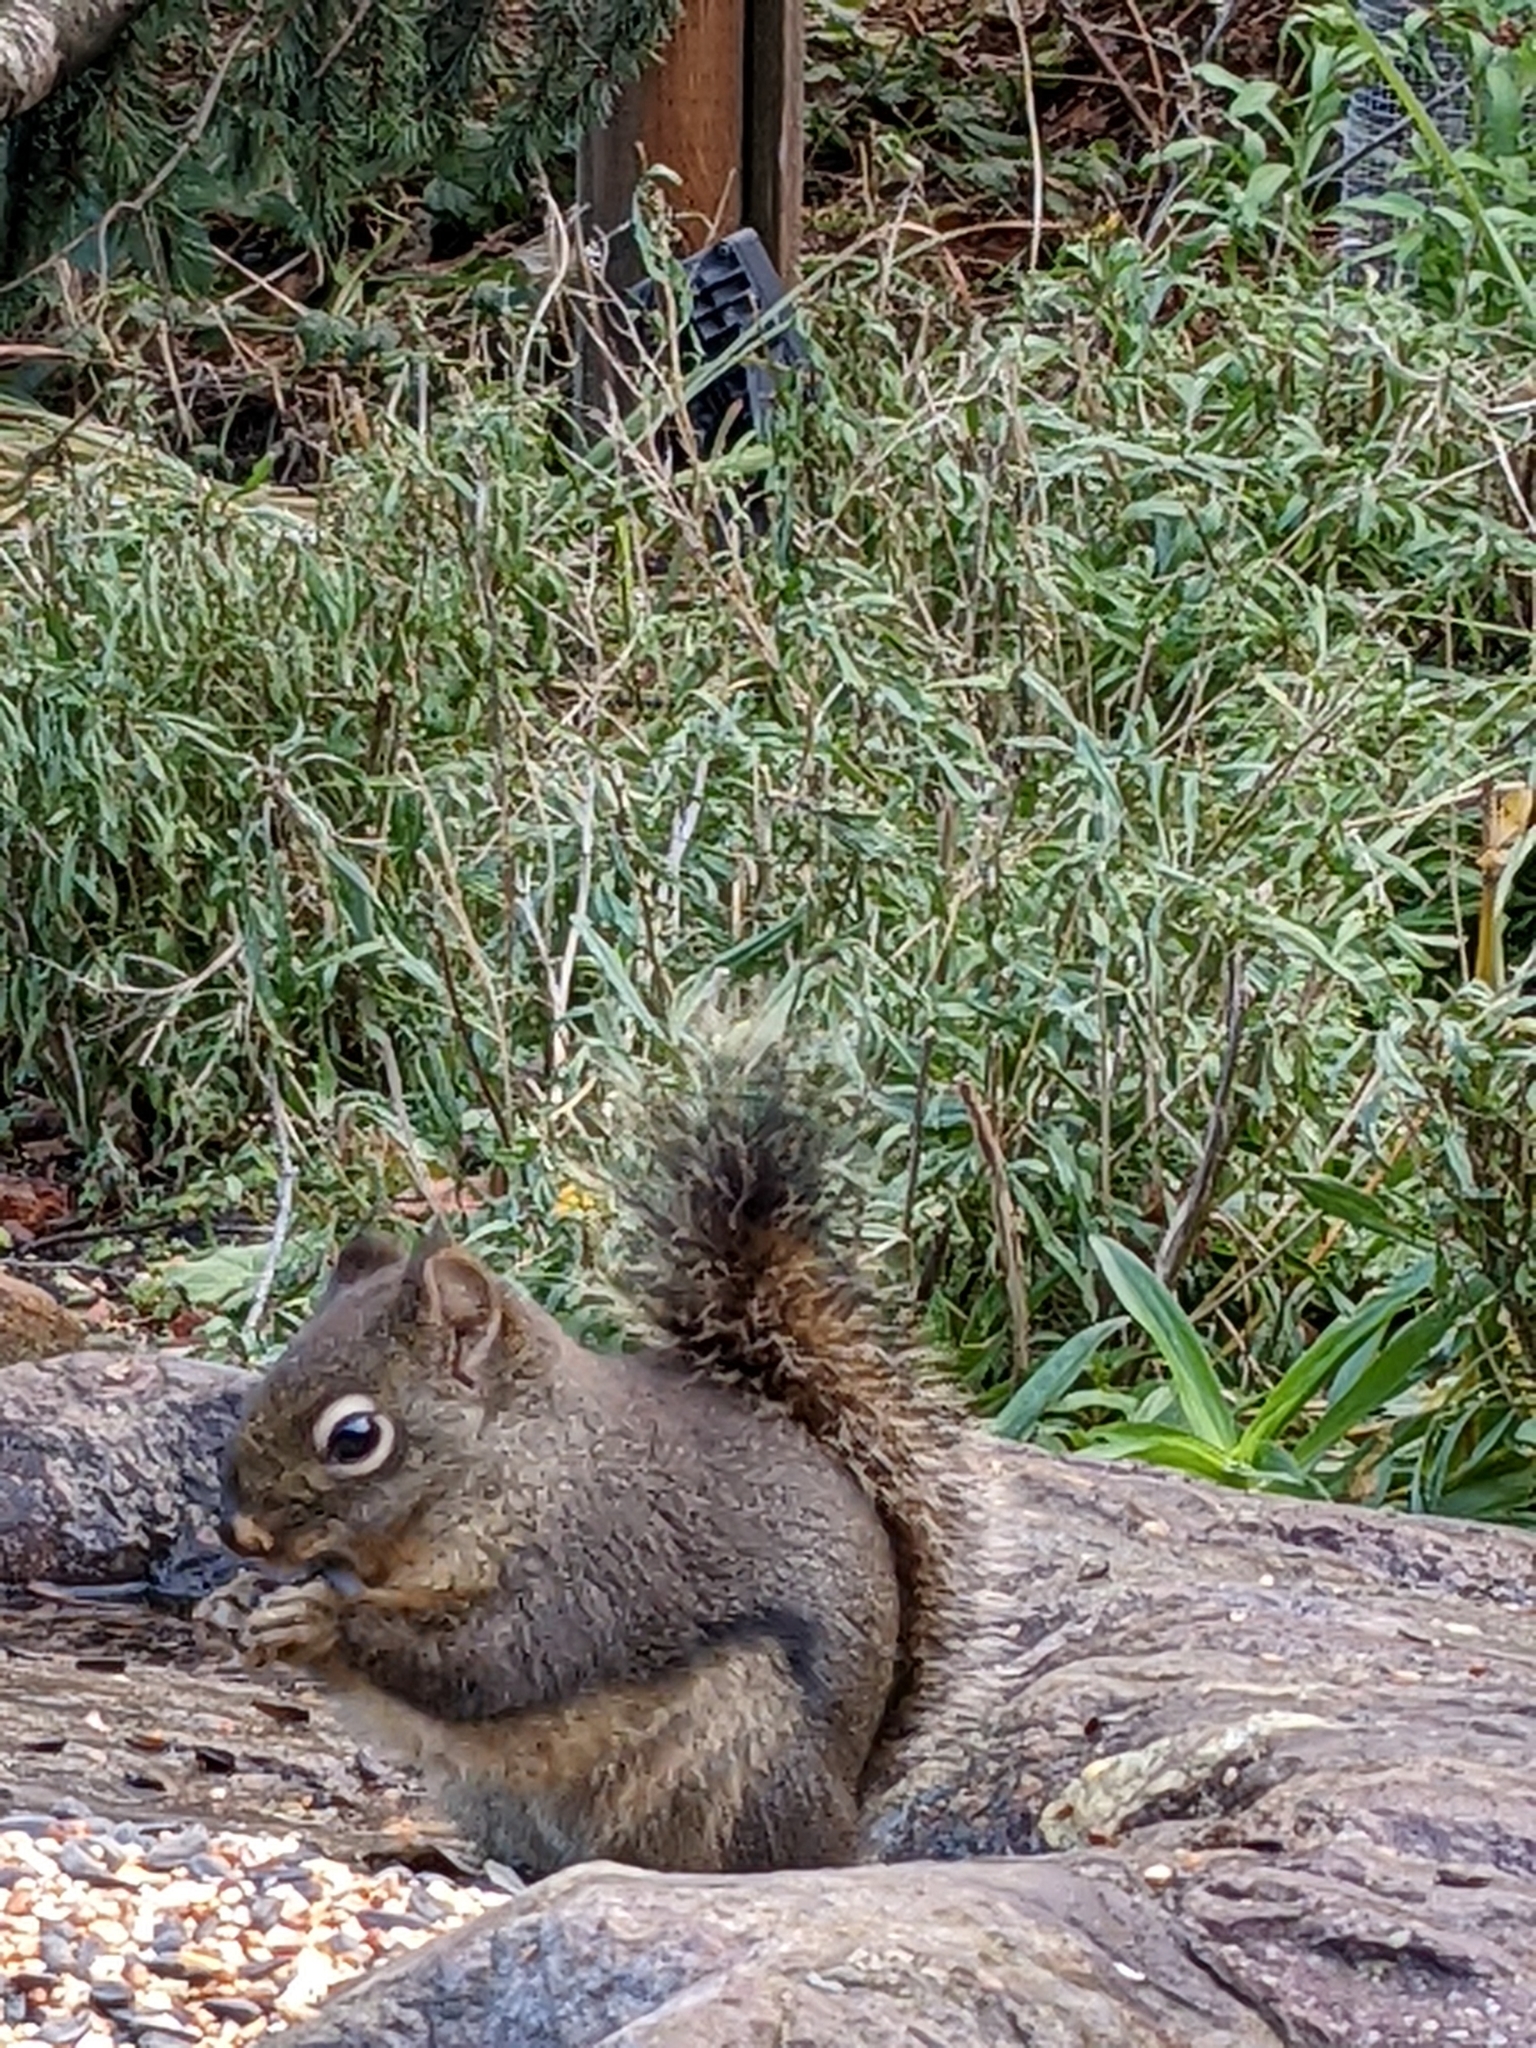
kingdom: Animalia
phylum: Chordata
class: Mammalia
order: Rodentia
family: Sciuridae
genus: Tamiasciurus
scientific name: Tamiasciurus douglasii
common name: Douglas's squirrel
